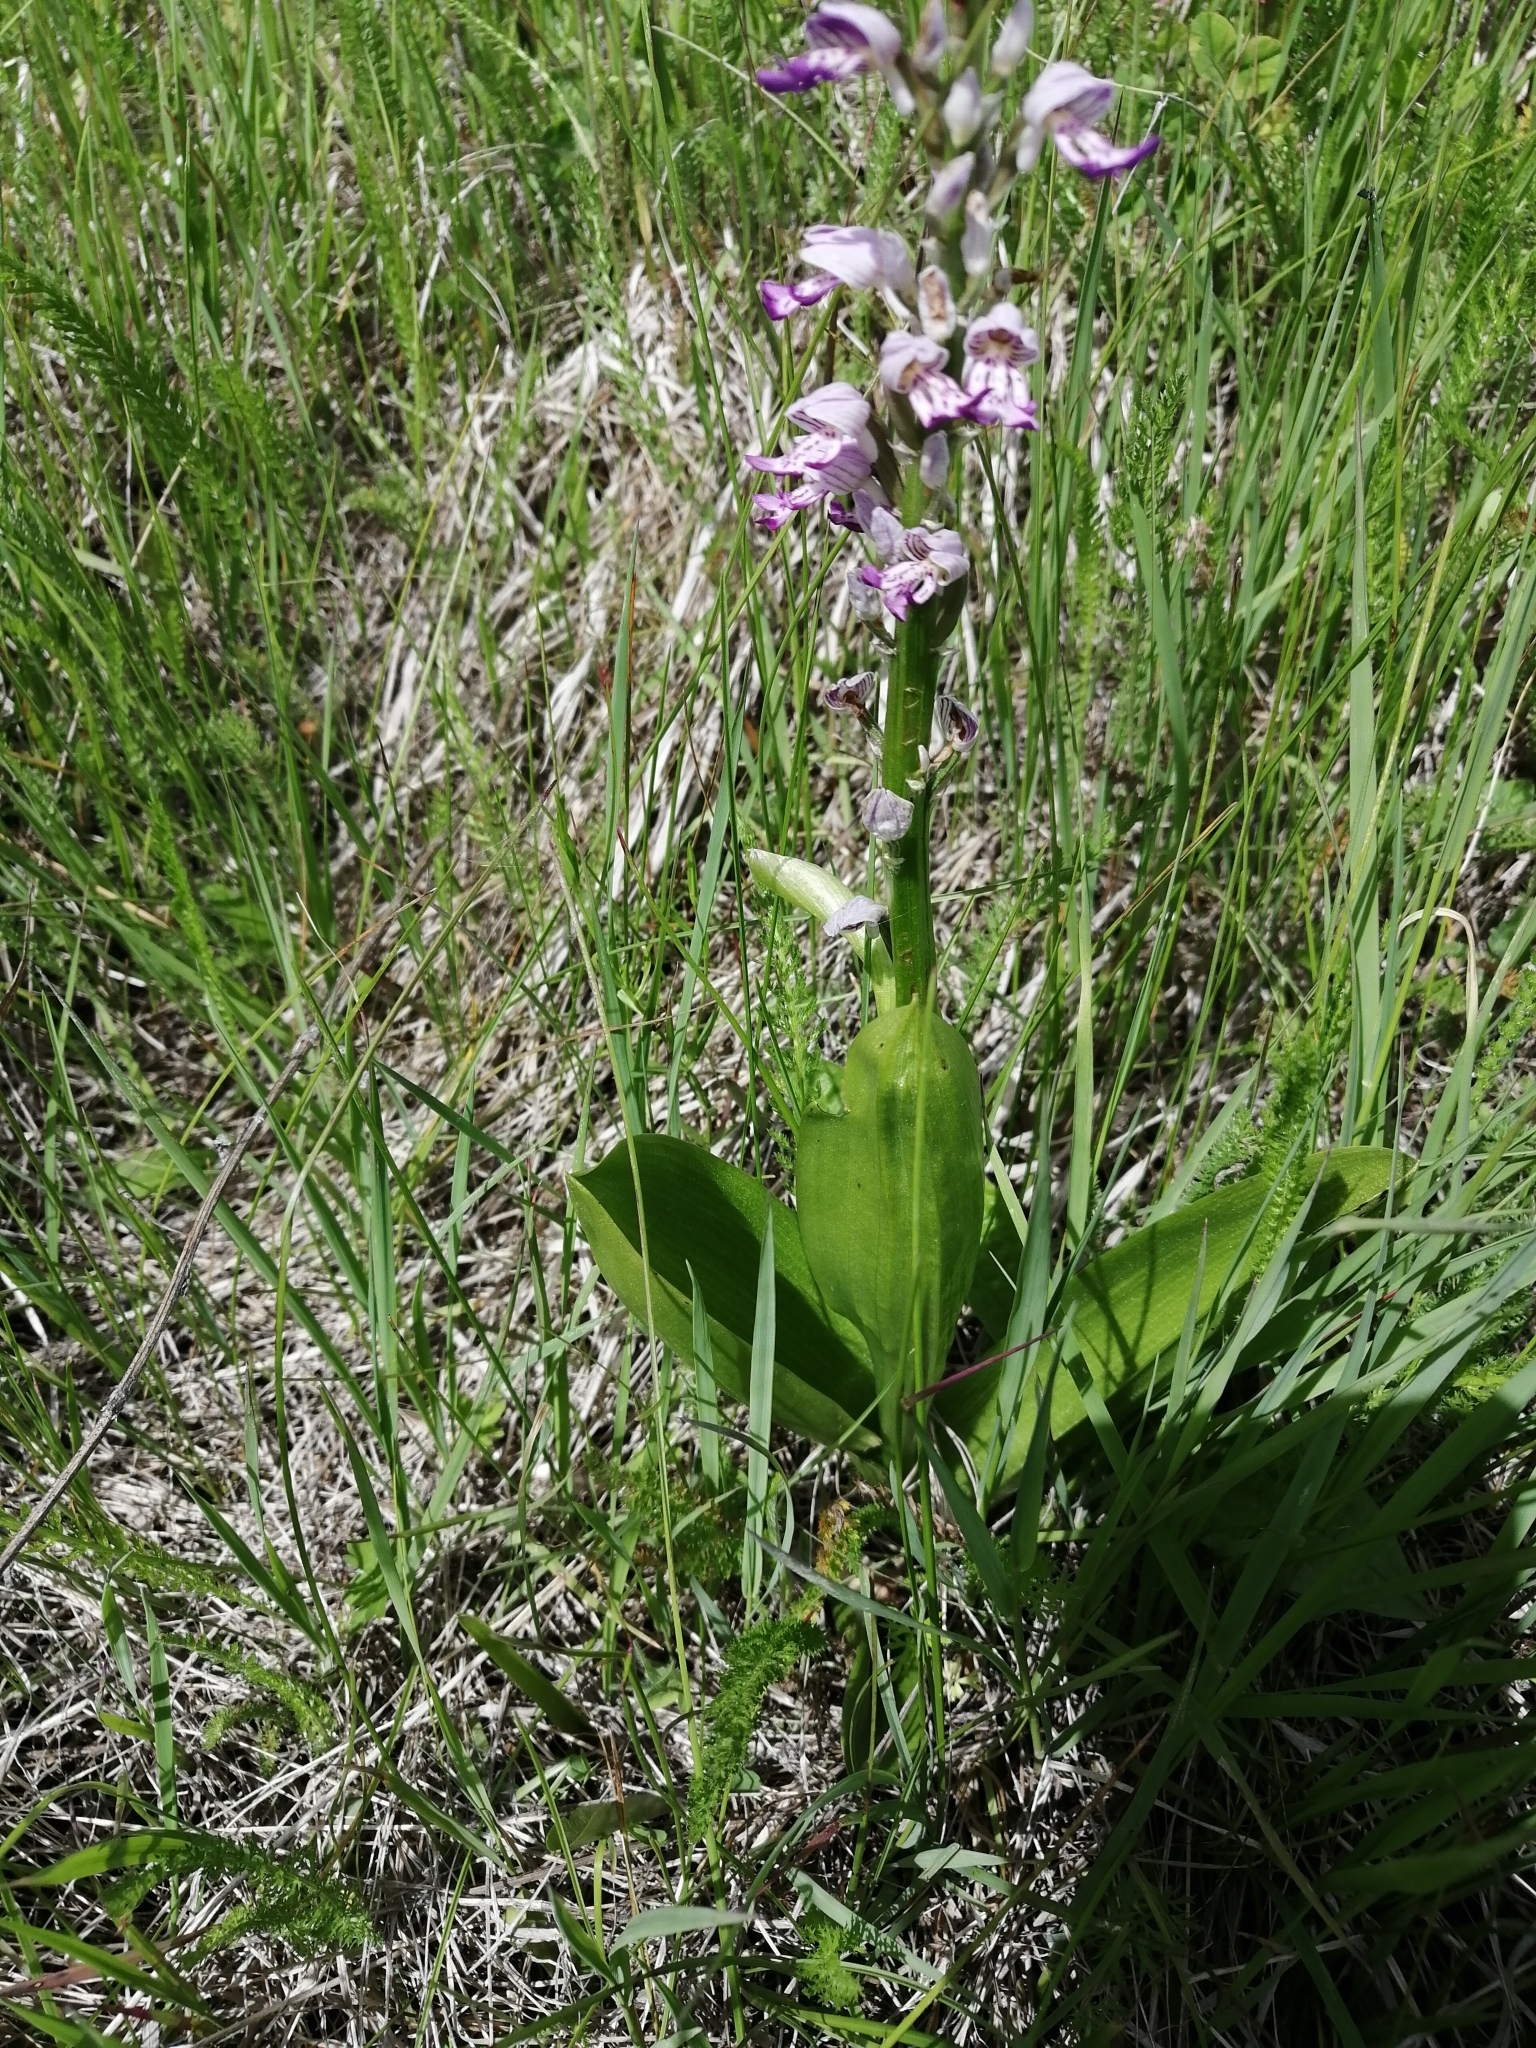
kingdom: Plantae
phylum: Tracheophyta
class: Liliopsida
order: Asparagales
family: Orchidaceae
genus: Orchis
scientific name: Orchis militaris
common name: Military orchid
